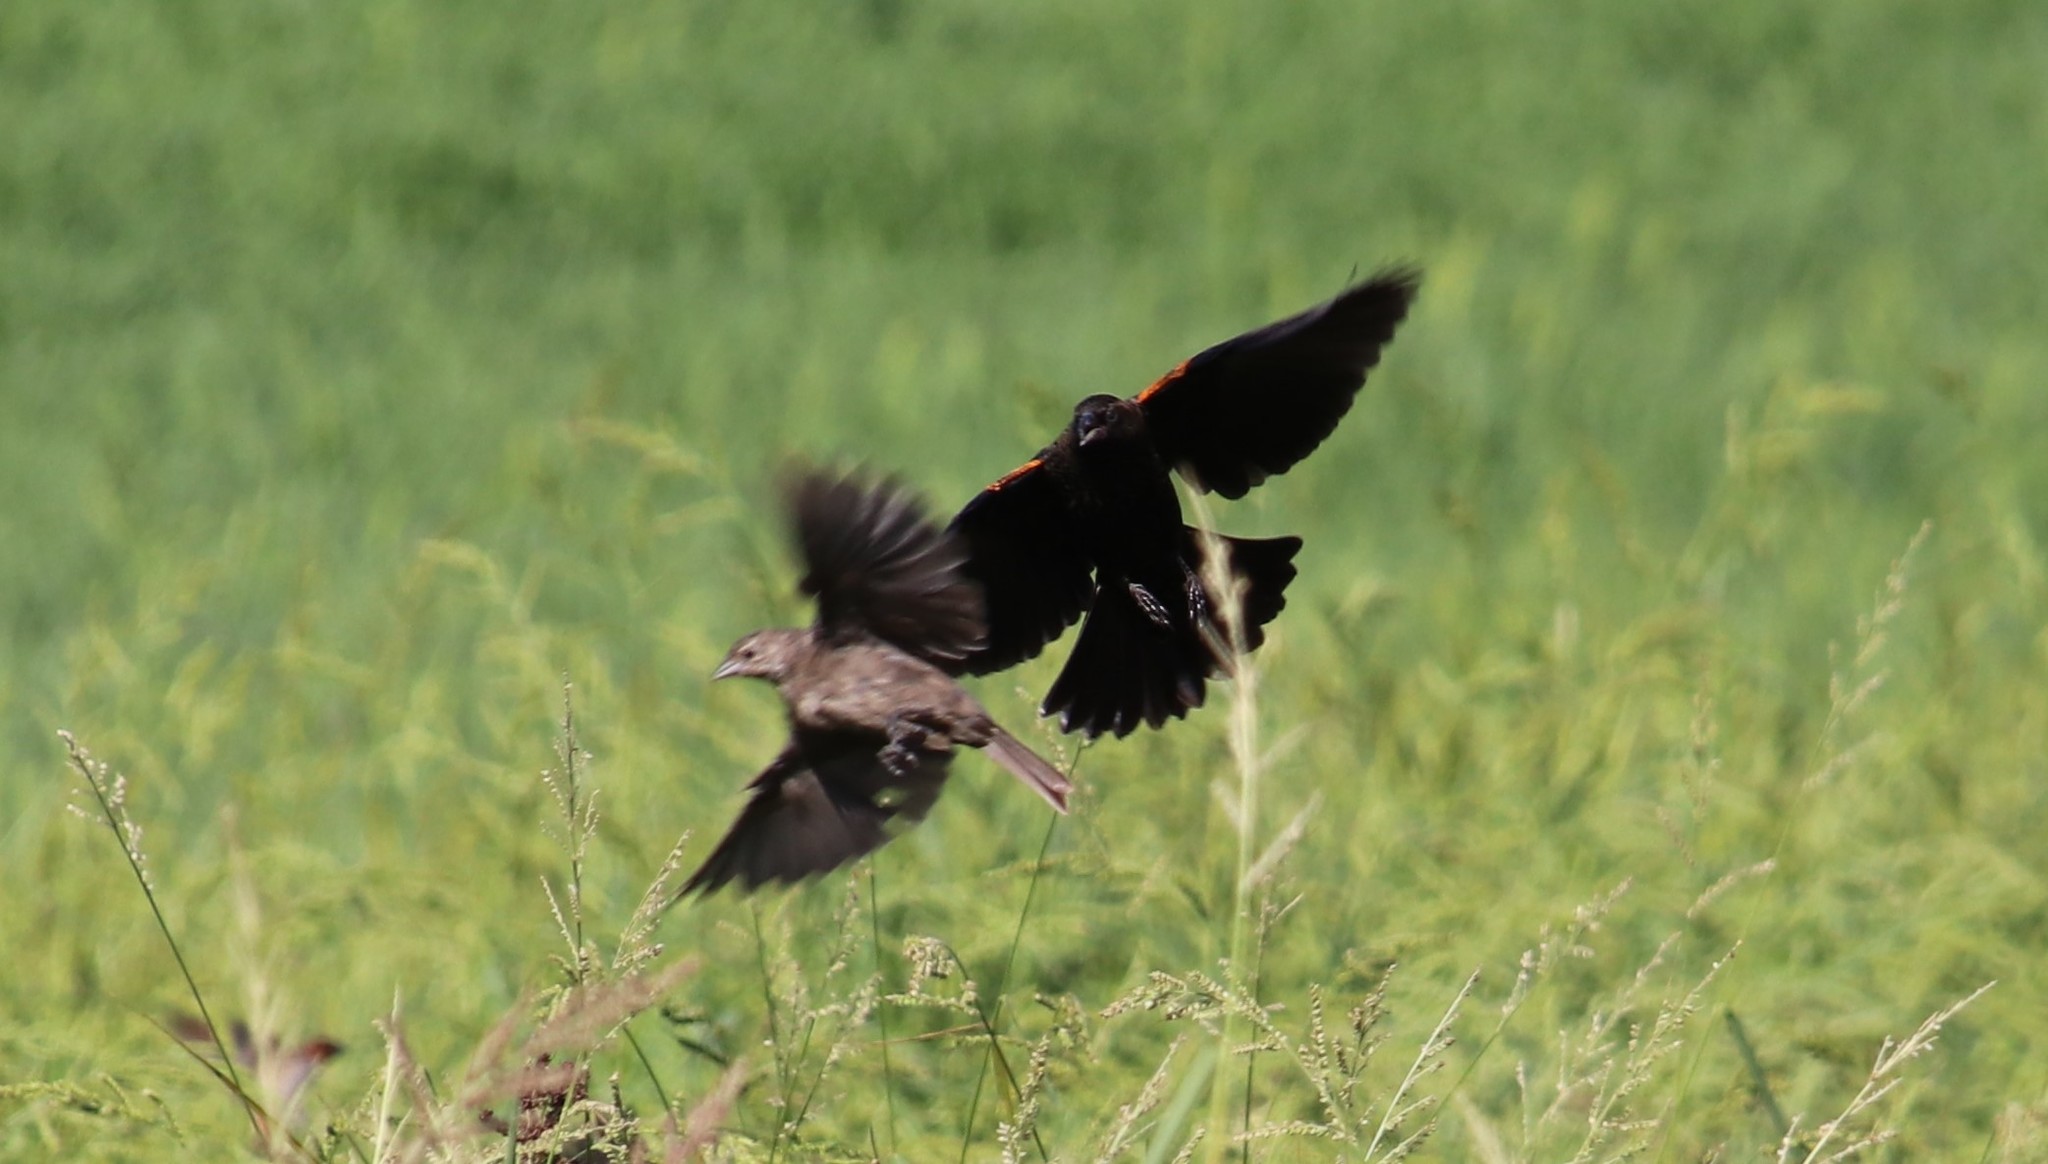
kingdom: Animalia
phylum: Chordata
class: Aves
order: Passeriformes
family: Icteridae
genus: Agelaius
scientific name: Agelaius phoeniceus
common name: Red-winged blackbird
